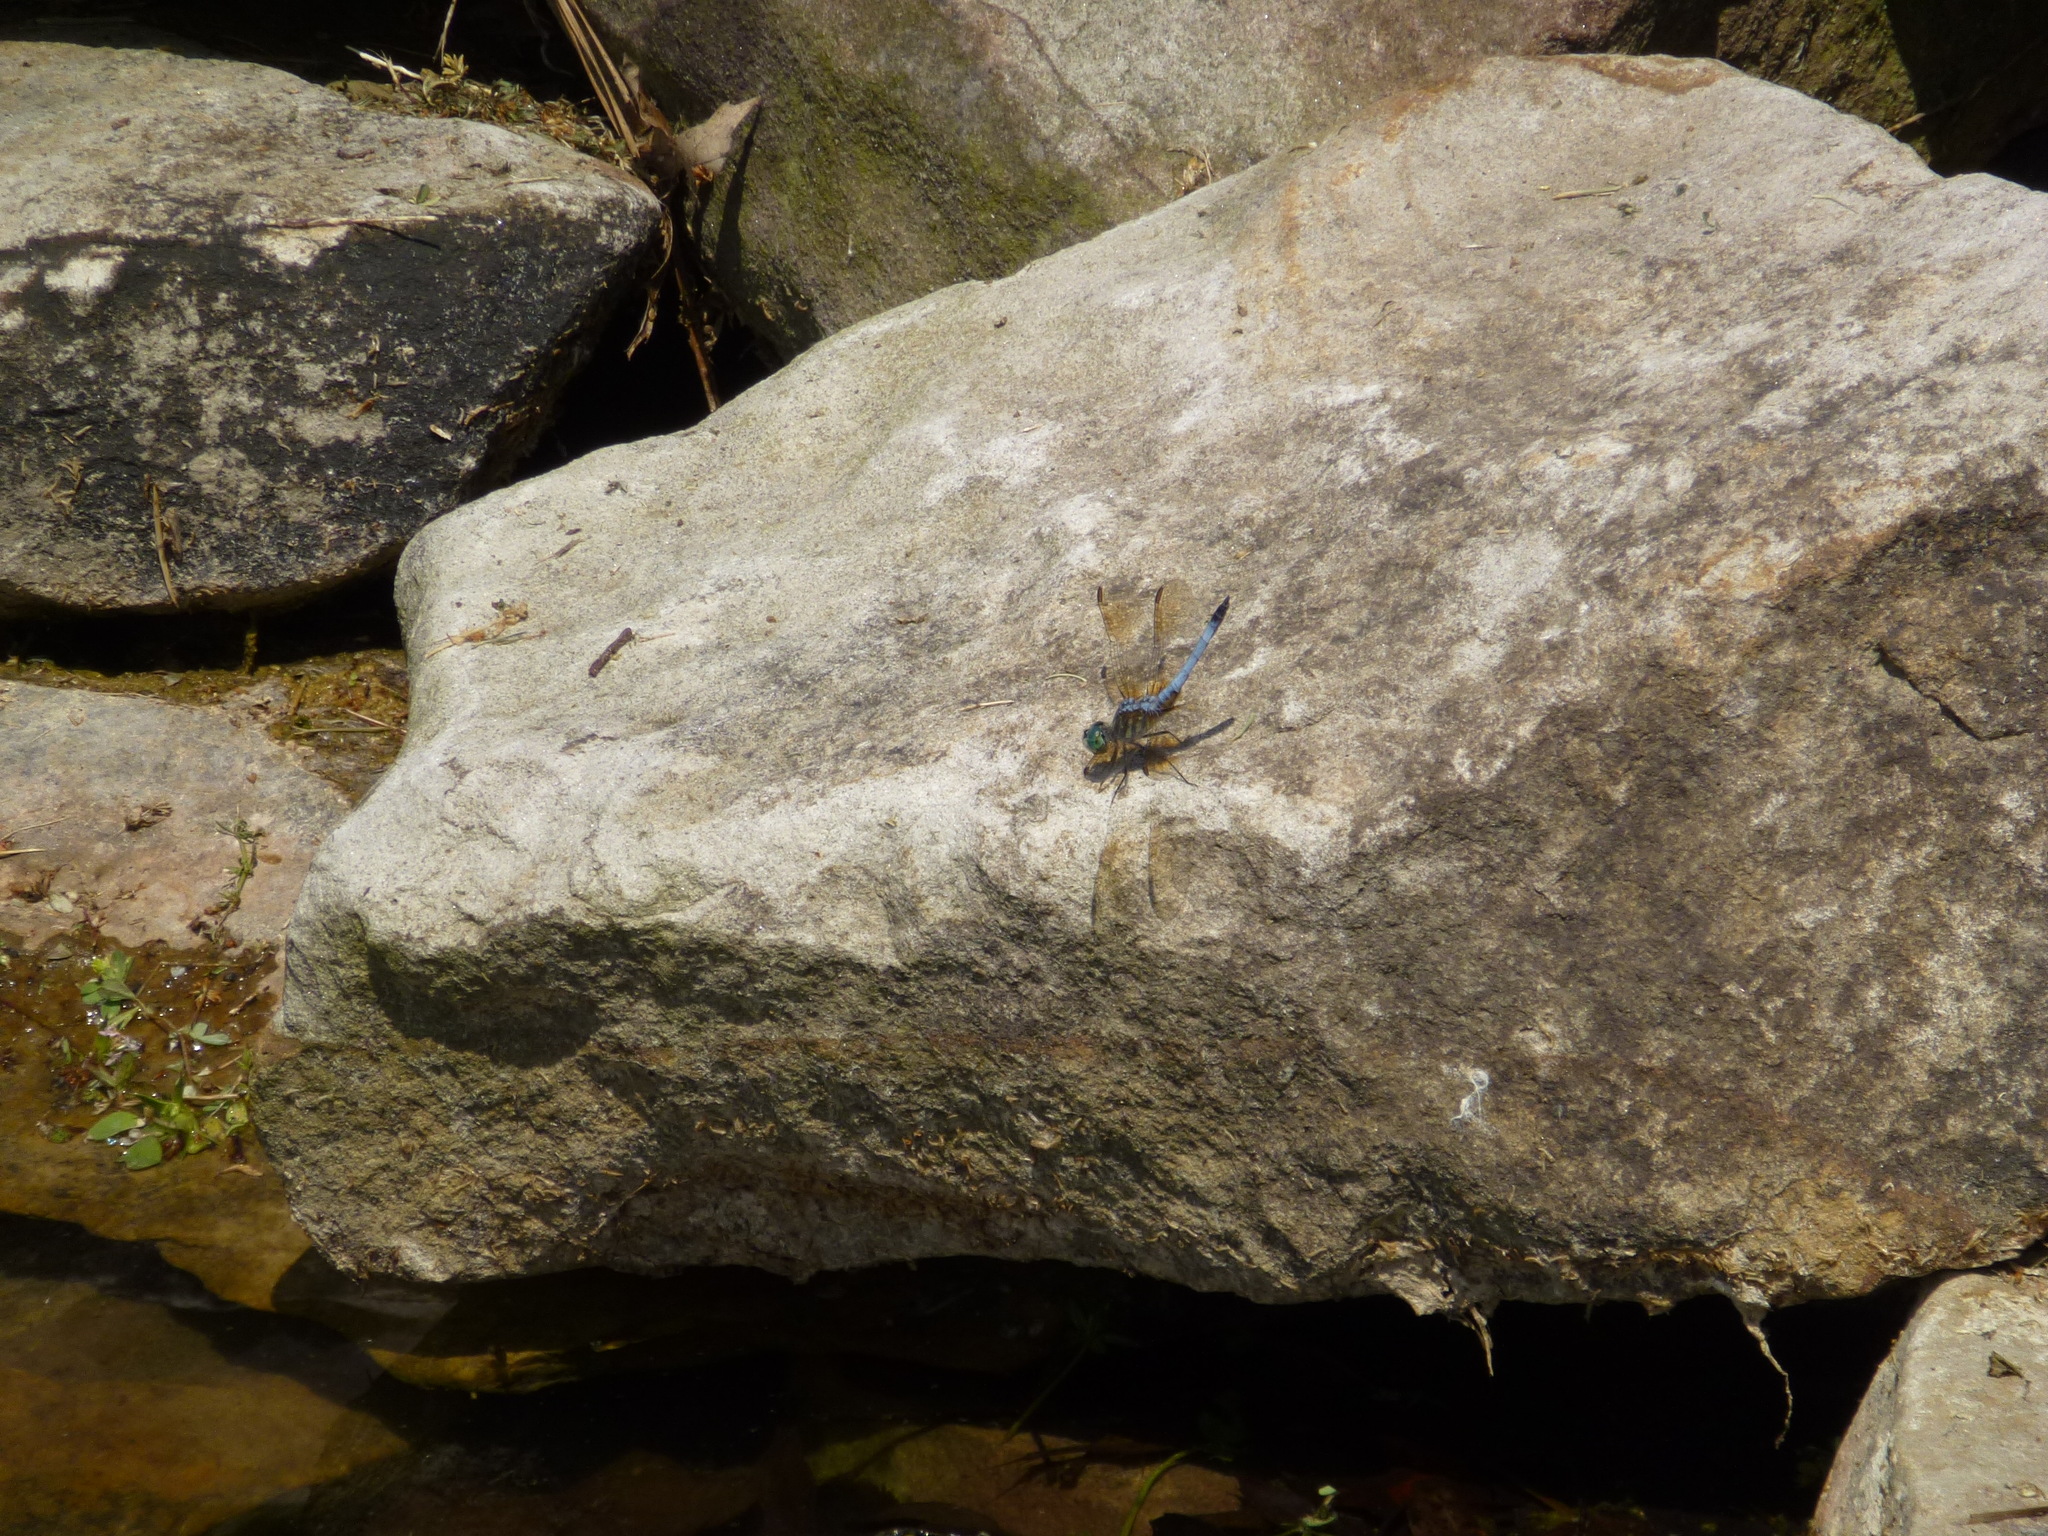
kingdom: Animalia
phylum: Arthropoda
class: Insecta
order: Odonata
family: Libellulidae
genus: Pachydiplax
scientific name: Pachydiplax longipennis
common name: Blue dasher
